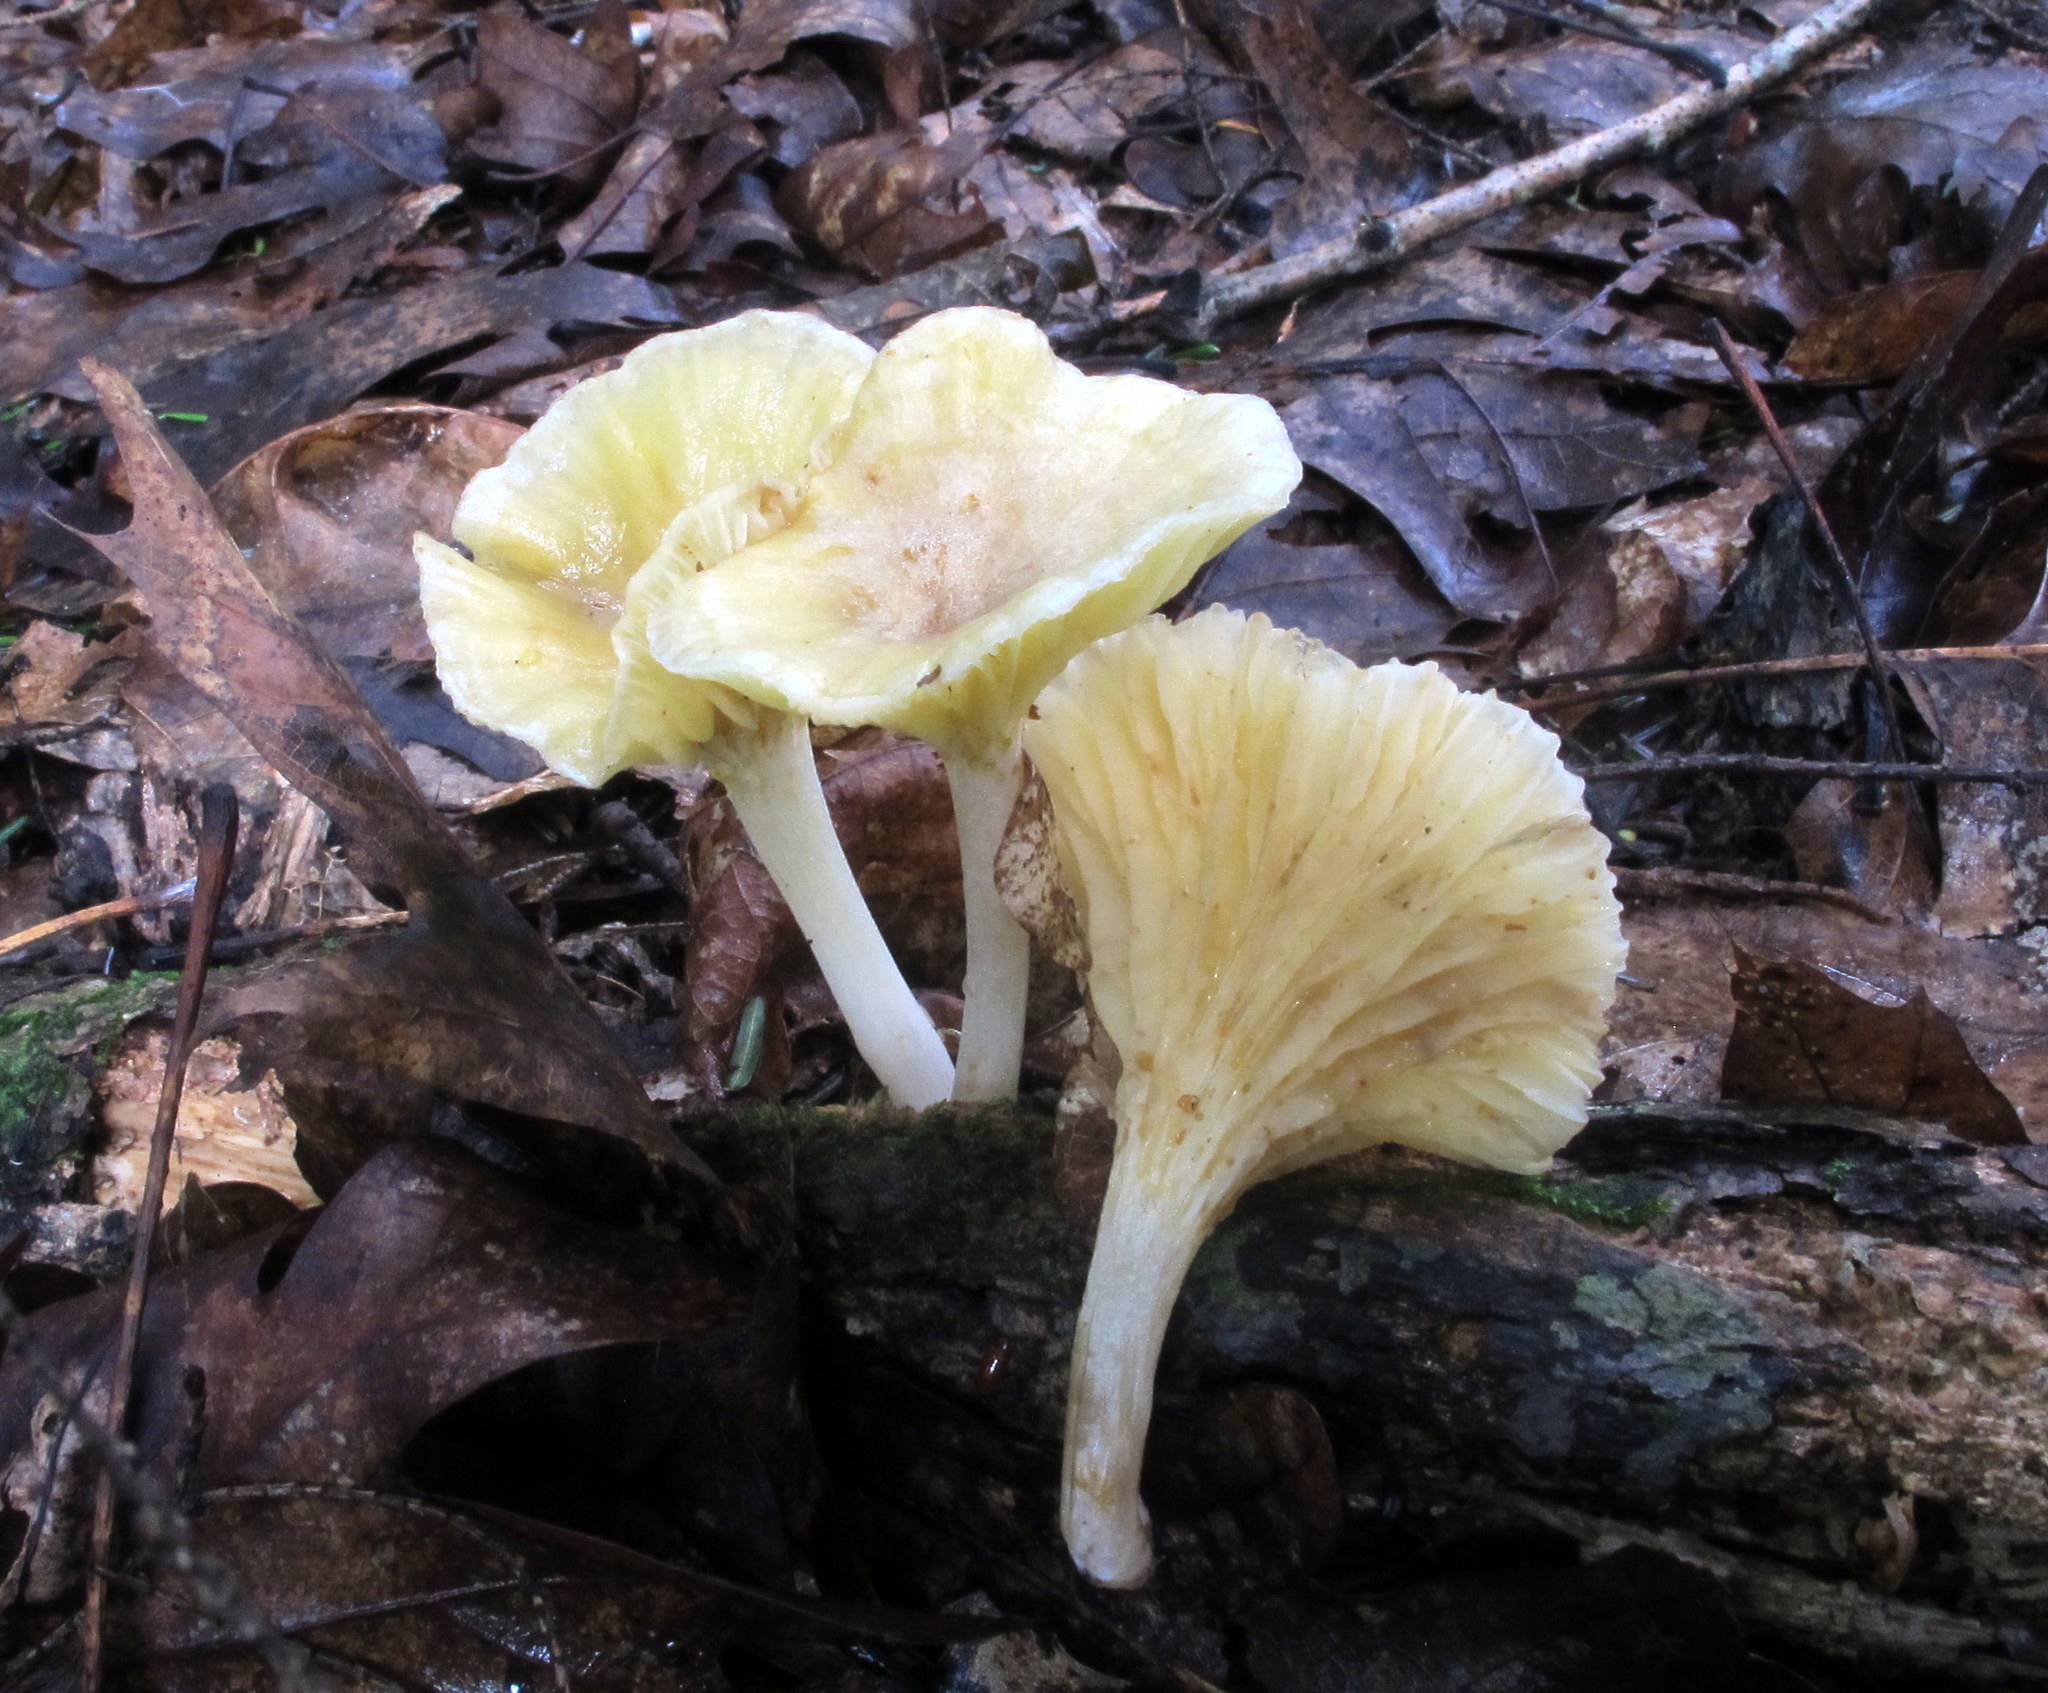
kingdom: Fungi
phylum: Basidiomycota
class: Agaricomycetes
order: Agaricales
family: Marasmiaceae
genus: Gerronema
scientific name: Gerronema strombodes
